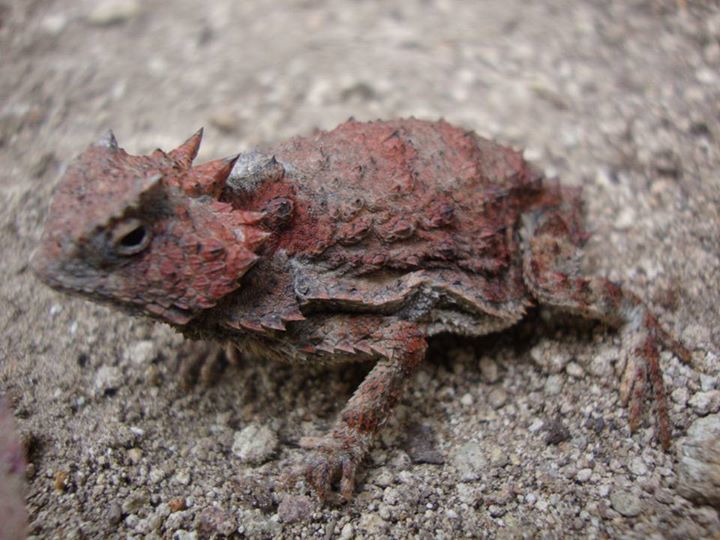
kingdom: Animalia
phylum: Chordata
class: Squamata
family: Phrynosomatidae
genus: Phrynosoma
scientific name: Phrynosoma braconnieri
